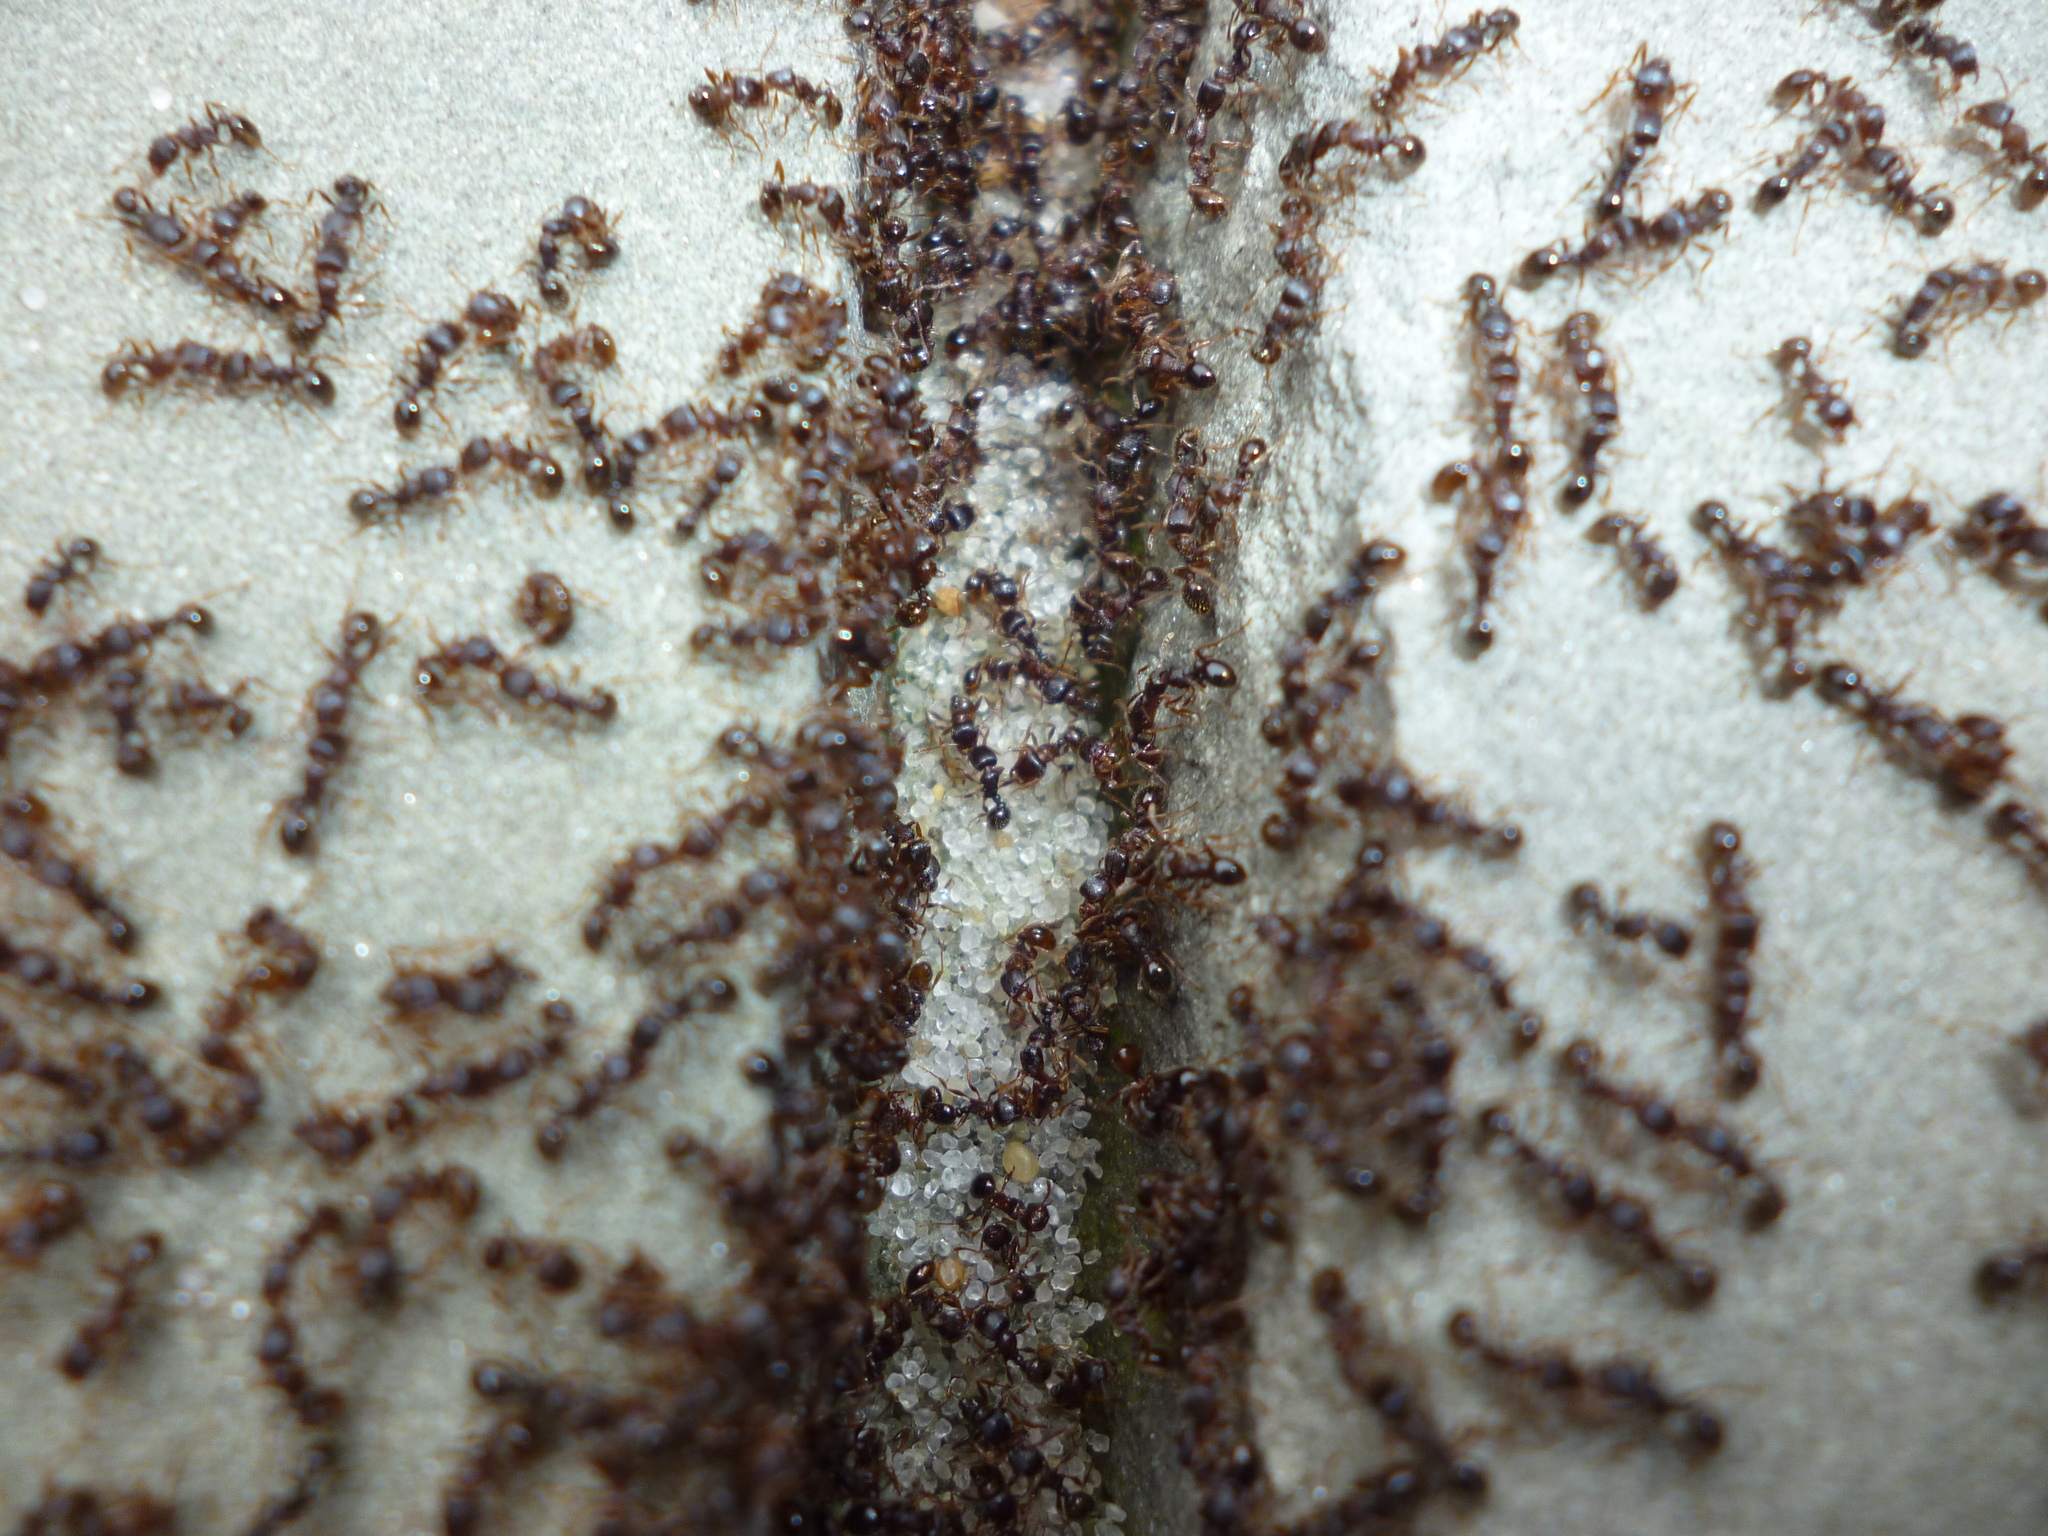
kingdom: Animalia
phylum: Arthropoda
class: Insecta
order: Hymenoptera
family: Formicidae
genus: Tetramorium
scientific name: Tetramorium immigrans
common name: Pavement ant
